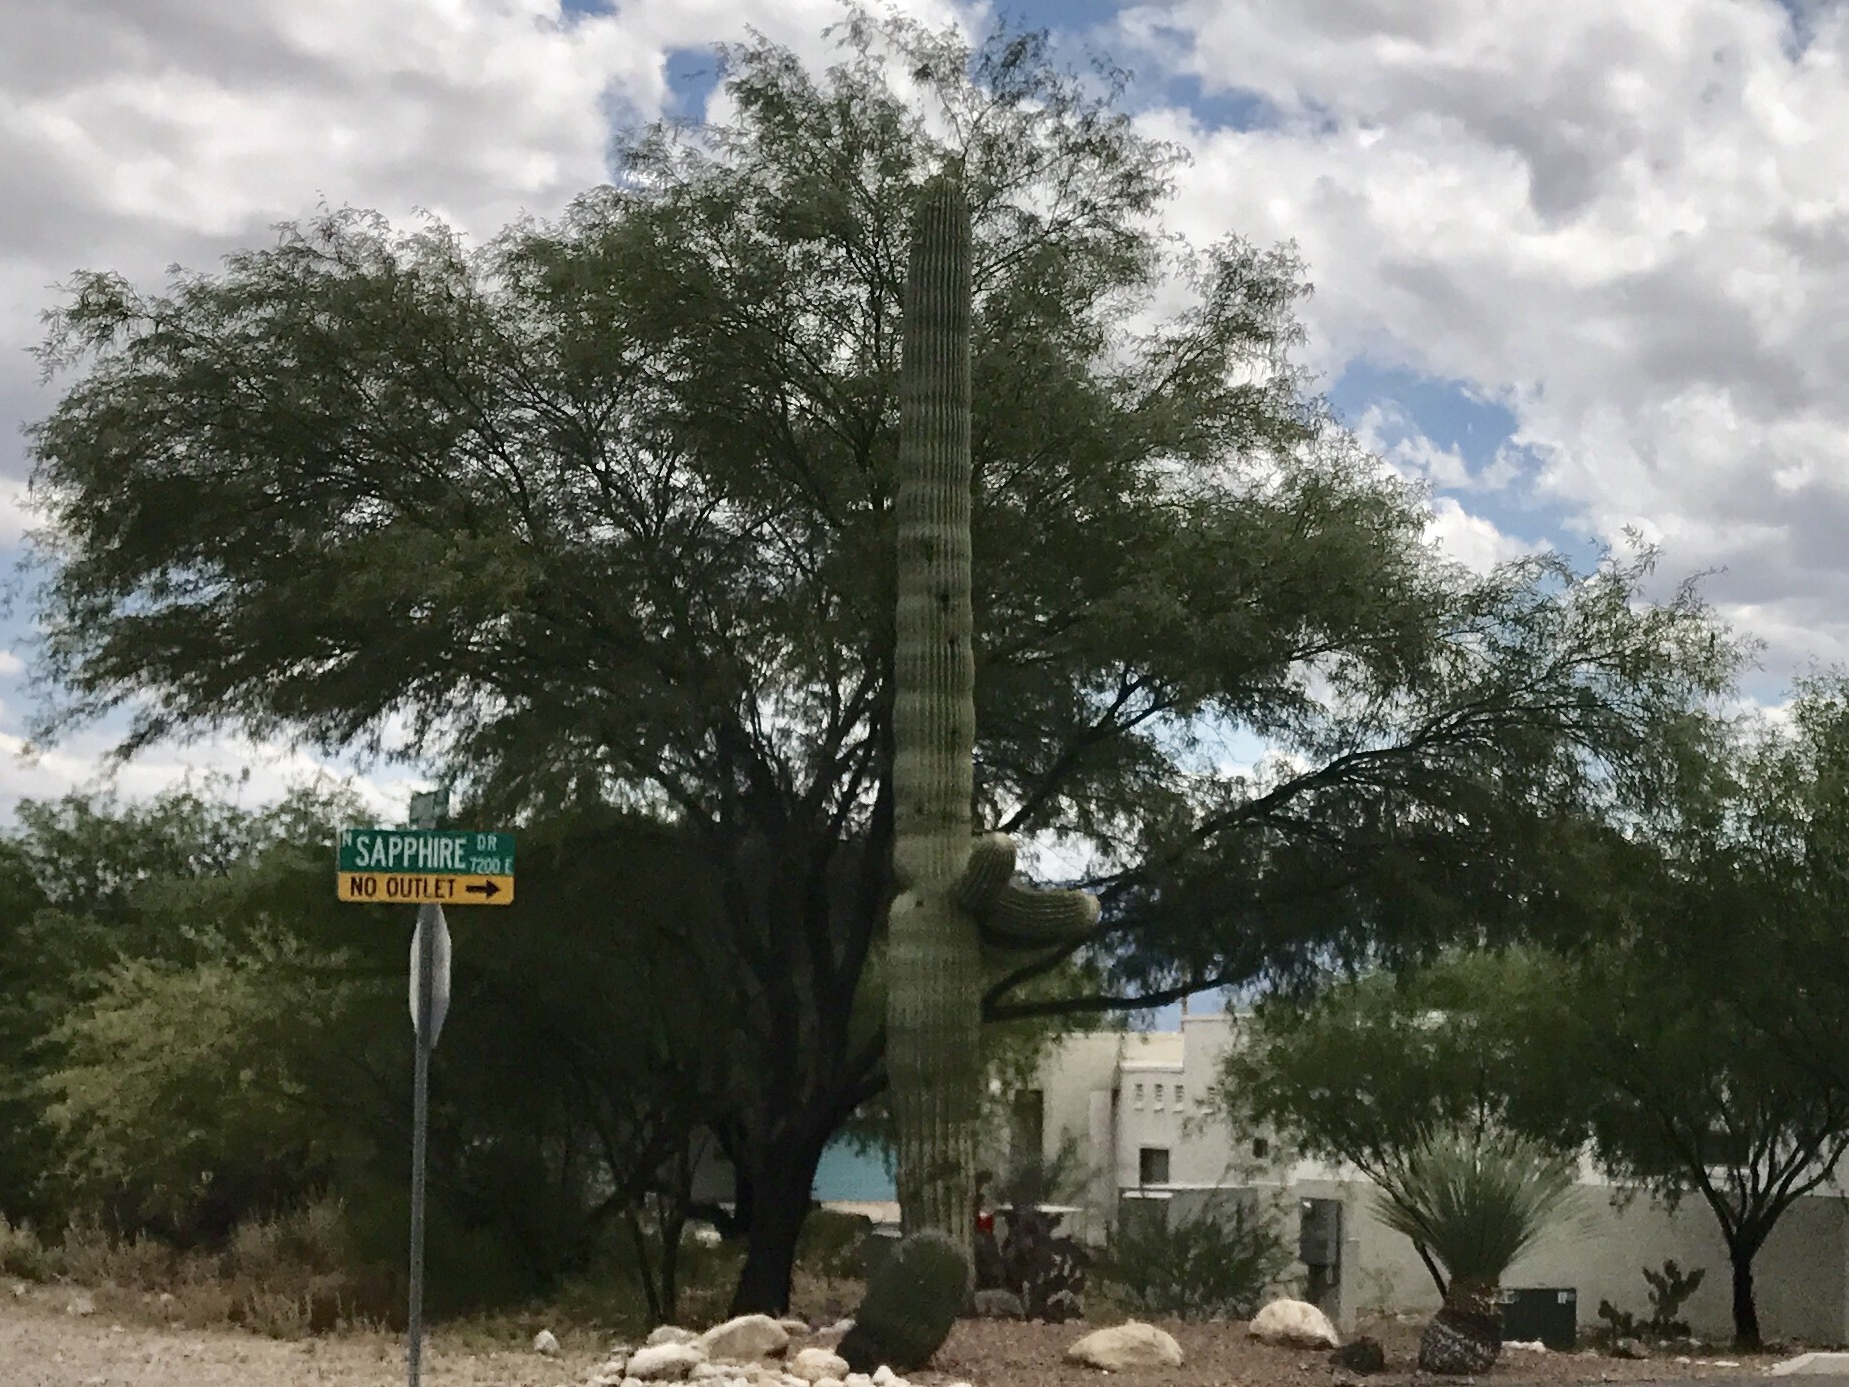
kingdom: Plantae
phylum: Tracheophyta
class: Magnoliopsida
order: Caryophyllales
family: Cactaceae
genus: Carnegiea
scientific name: Carnegiea gigantea
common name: Saguaro
